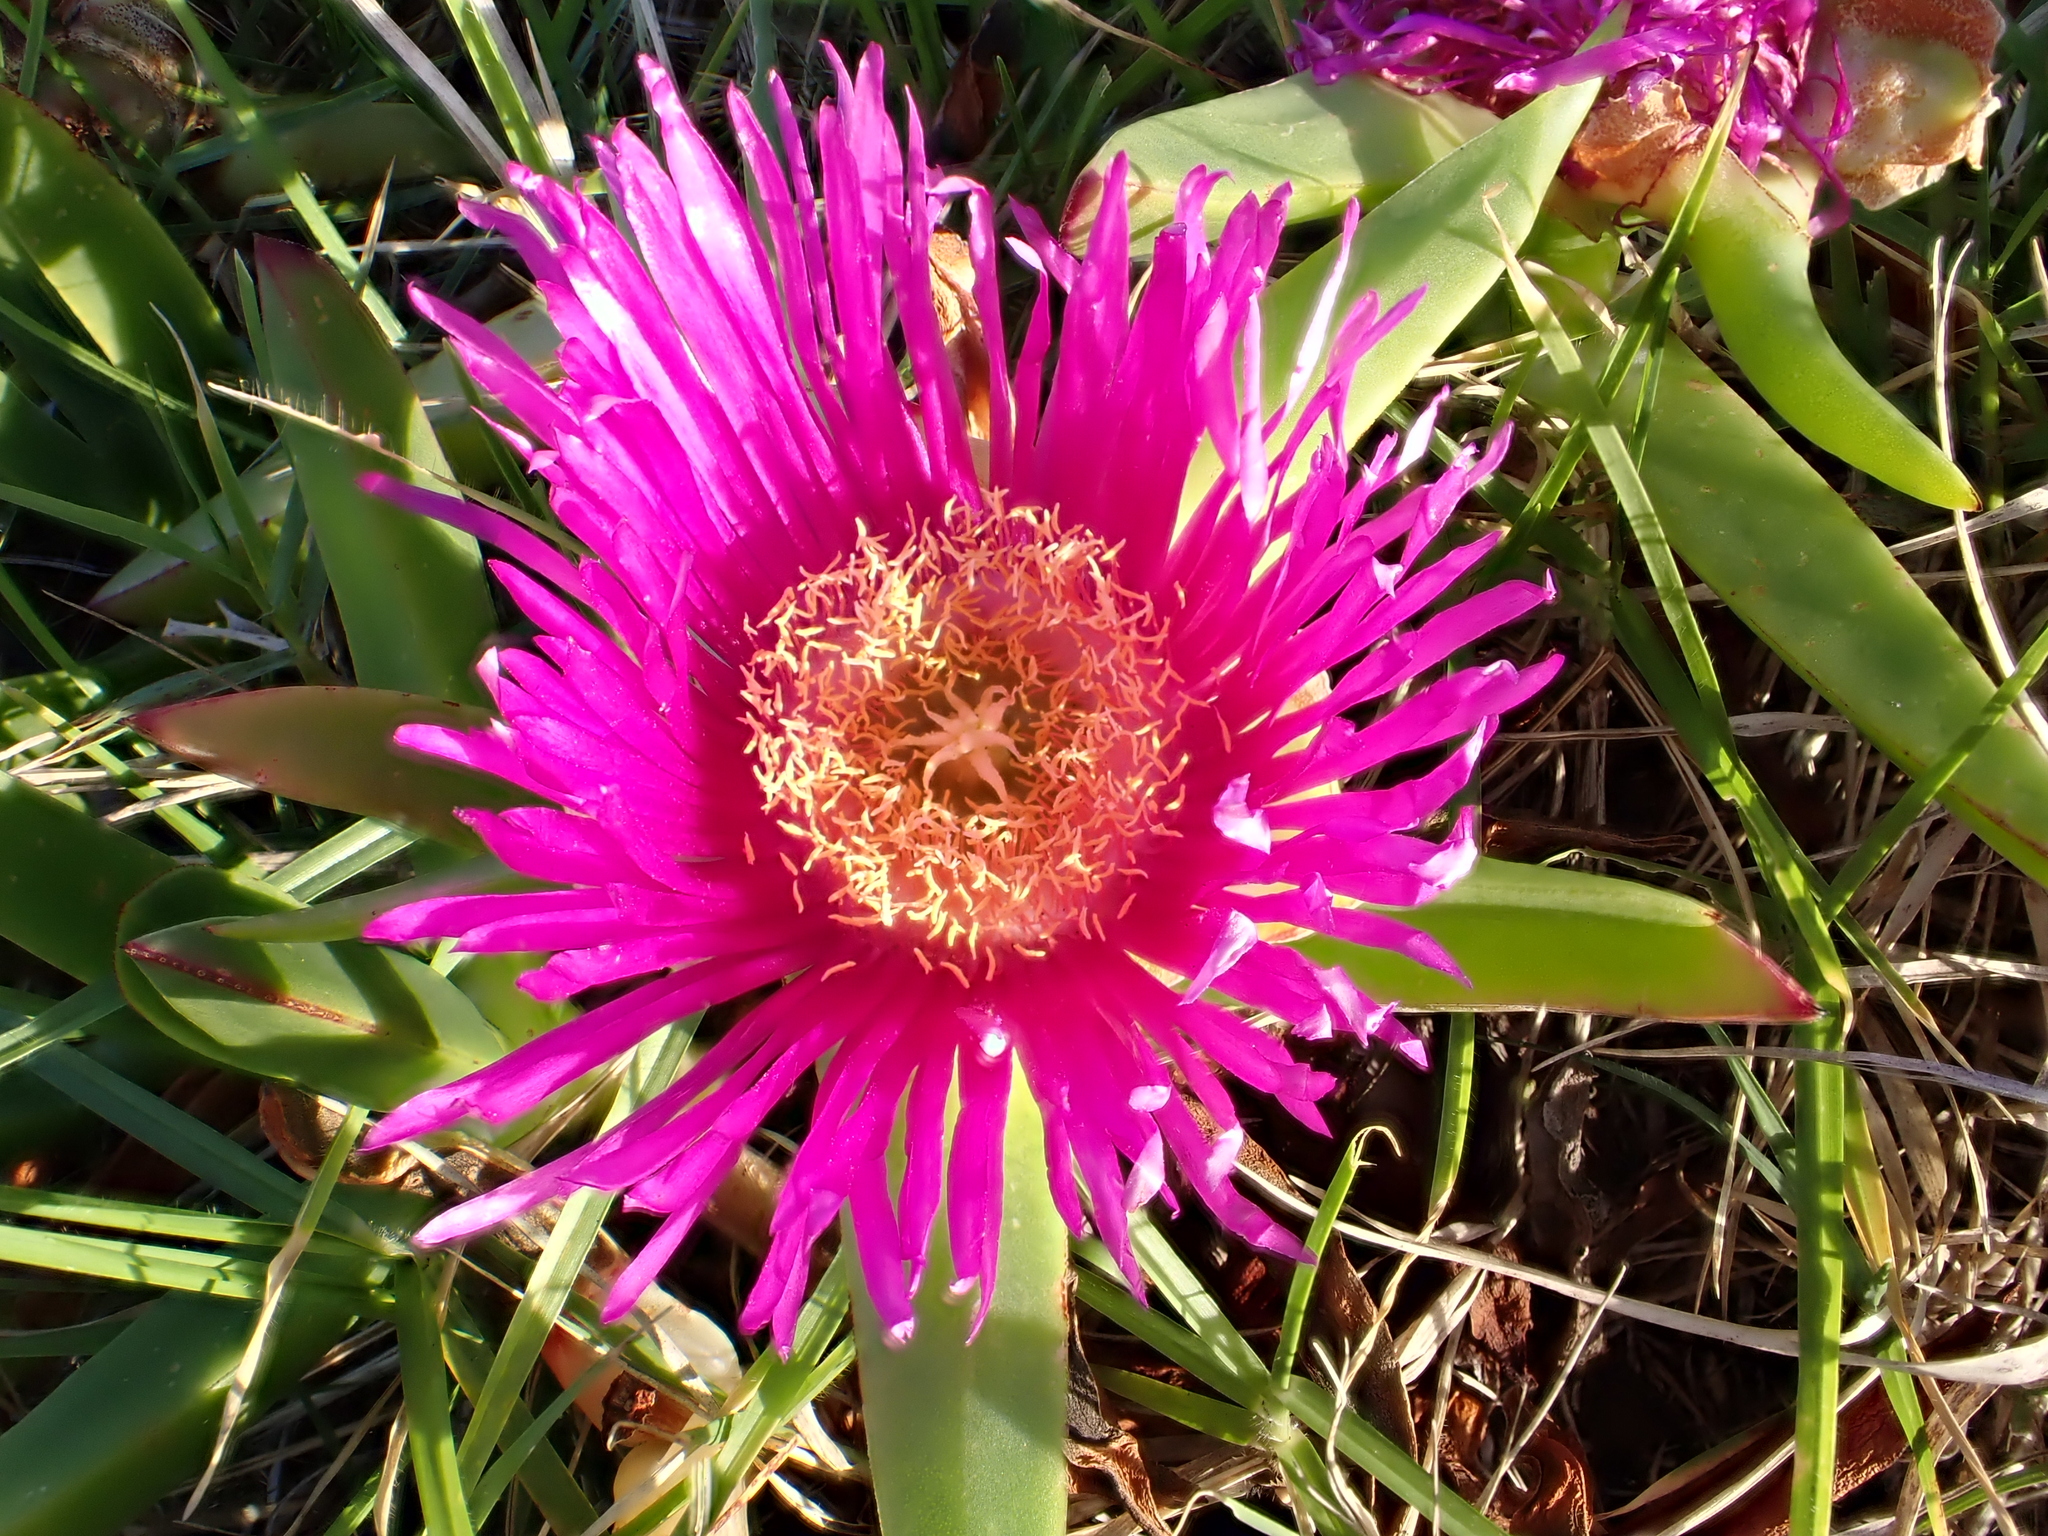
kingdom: Plantae
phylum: Tracheophyta
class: Magnoliopsida
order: Caryophyllales
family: Aizoaceae
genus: Carpobrotus
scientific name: Carpobrotus chilensis
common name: Sea fig
